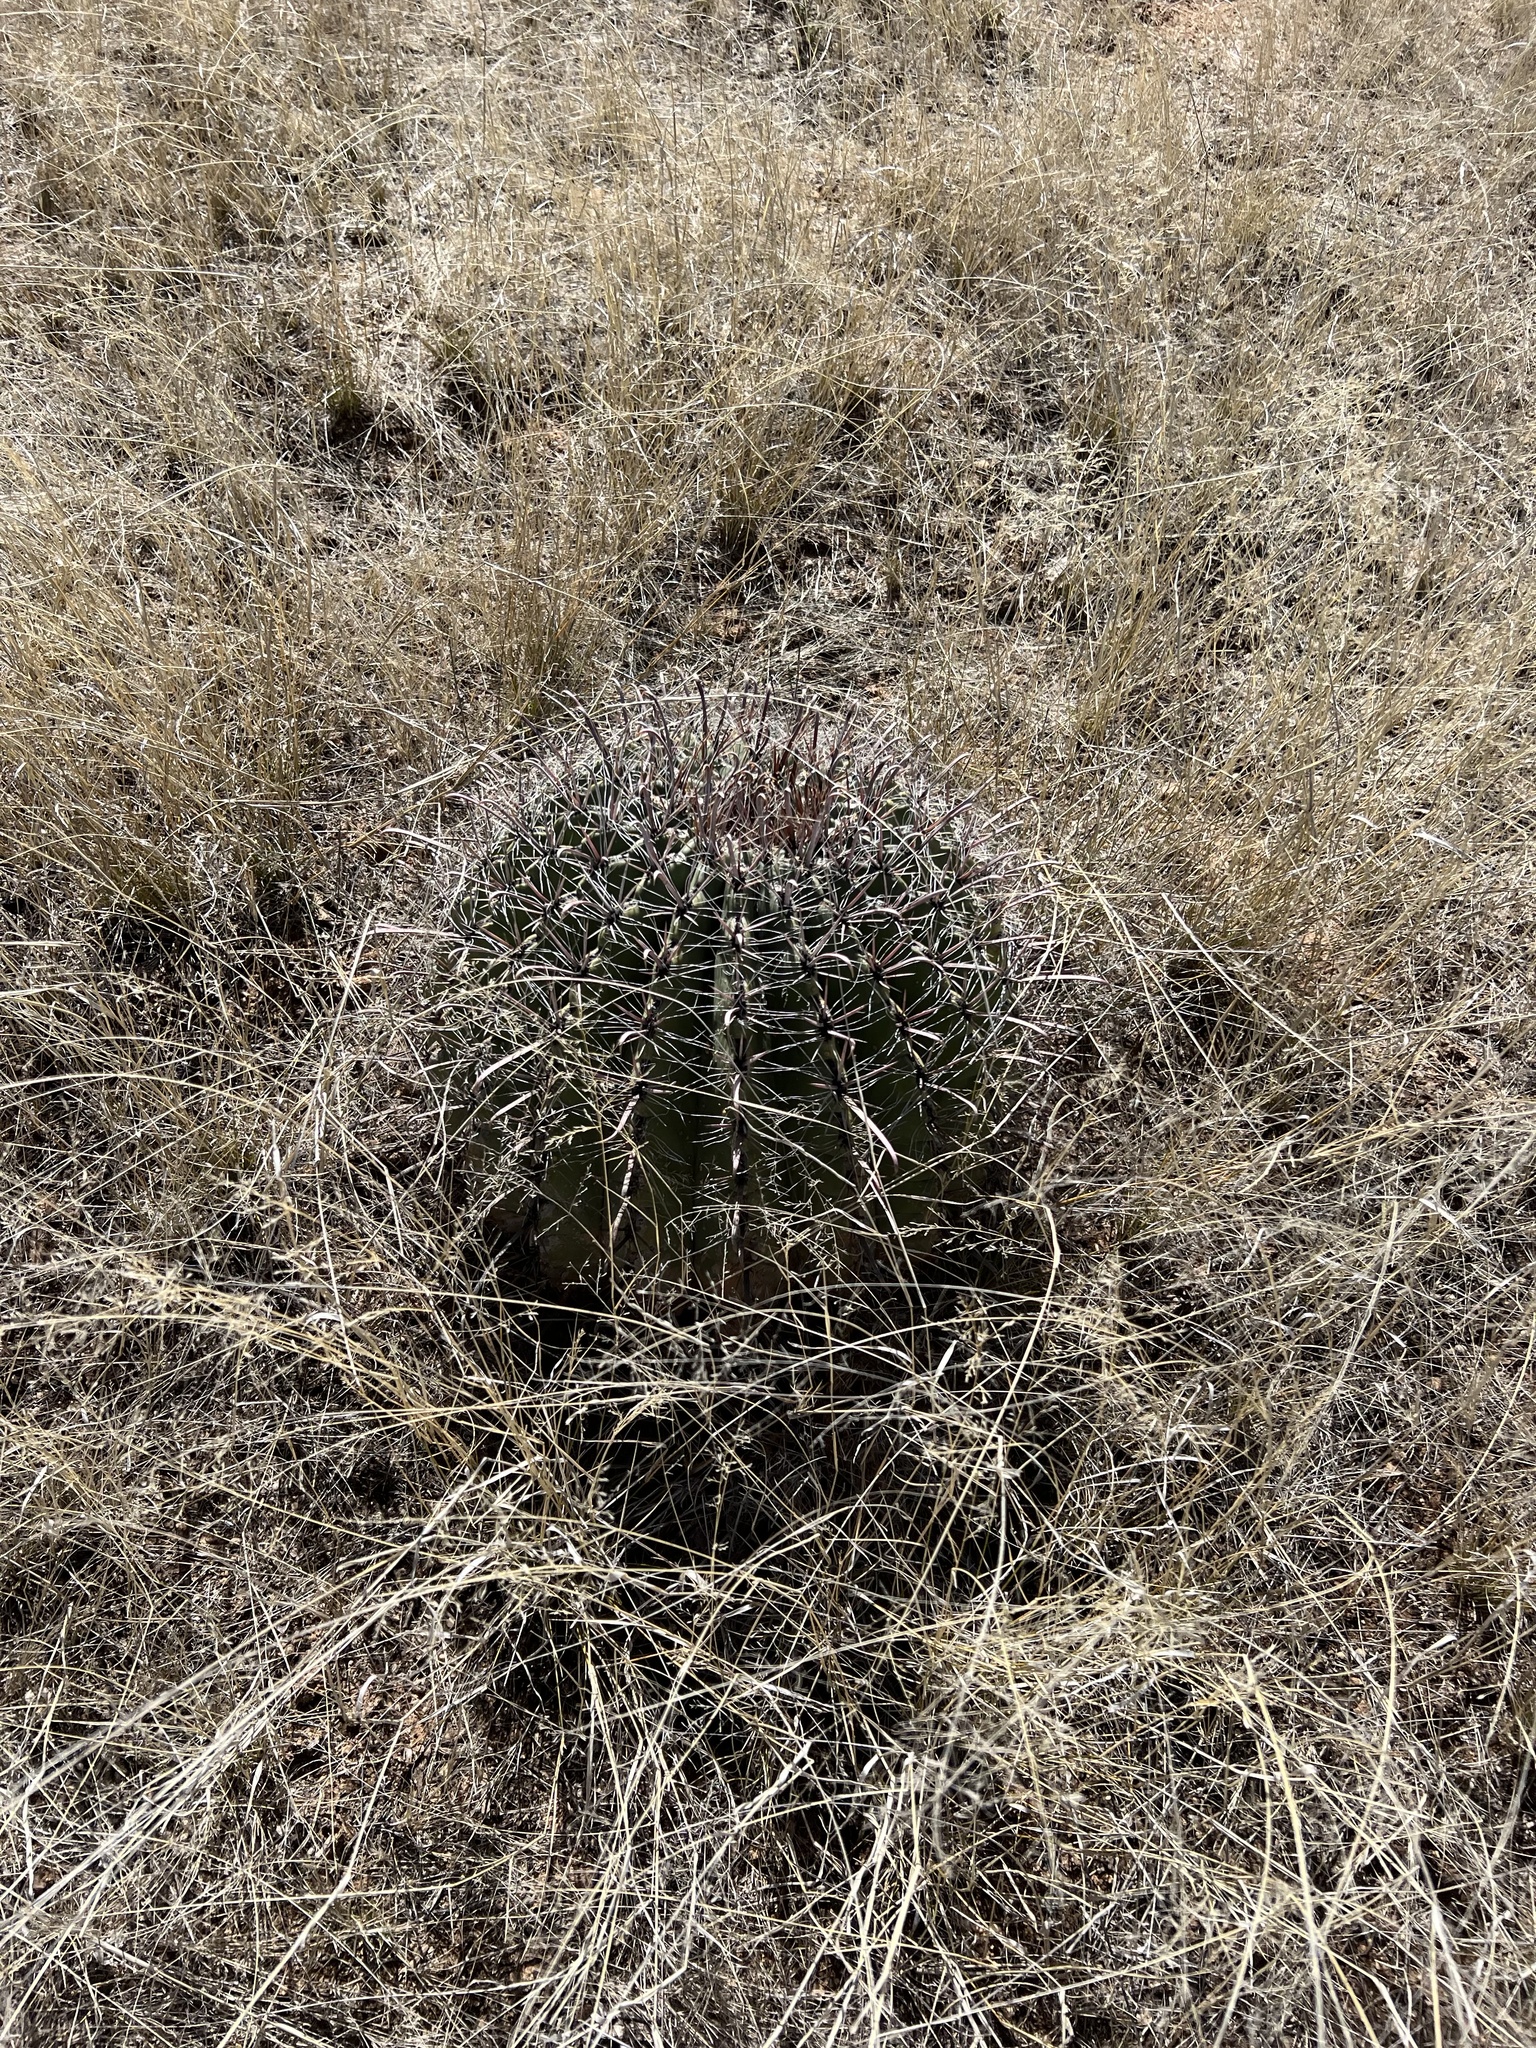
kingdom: Plantae
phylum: Tracheophyta
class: Magnoliopsida
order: Caryophyllales
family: Cactaceae
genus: Ferocactus
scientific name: Ferocactus wislizeni
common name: Candy barrel cactus
